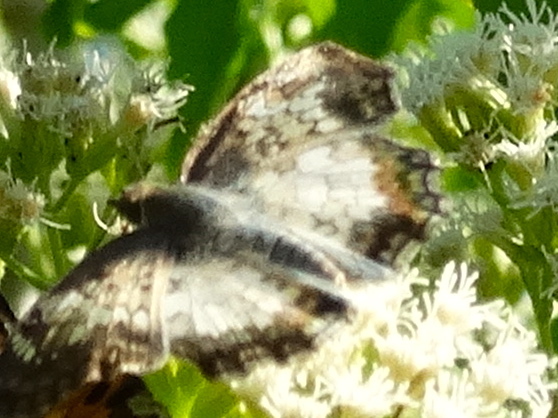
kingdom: Animalia
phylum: Arthropoda
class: Insecta
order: Lepidoptera
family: Hesperiidae
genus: Antigonus
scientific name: Antigonus emorsa
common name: White spurwing
